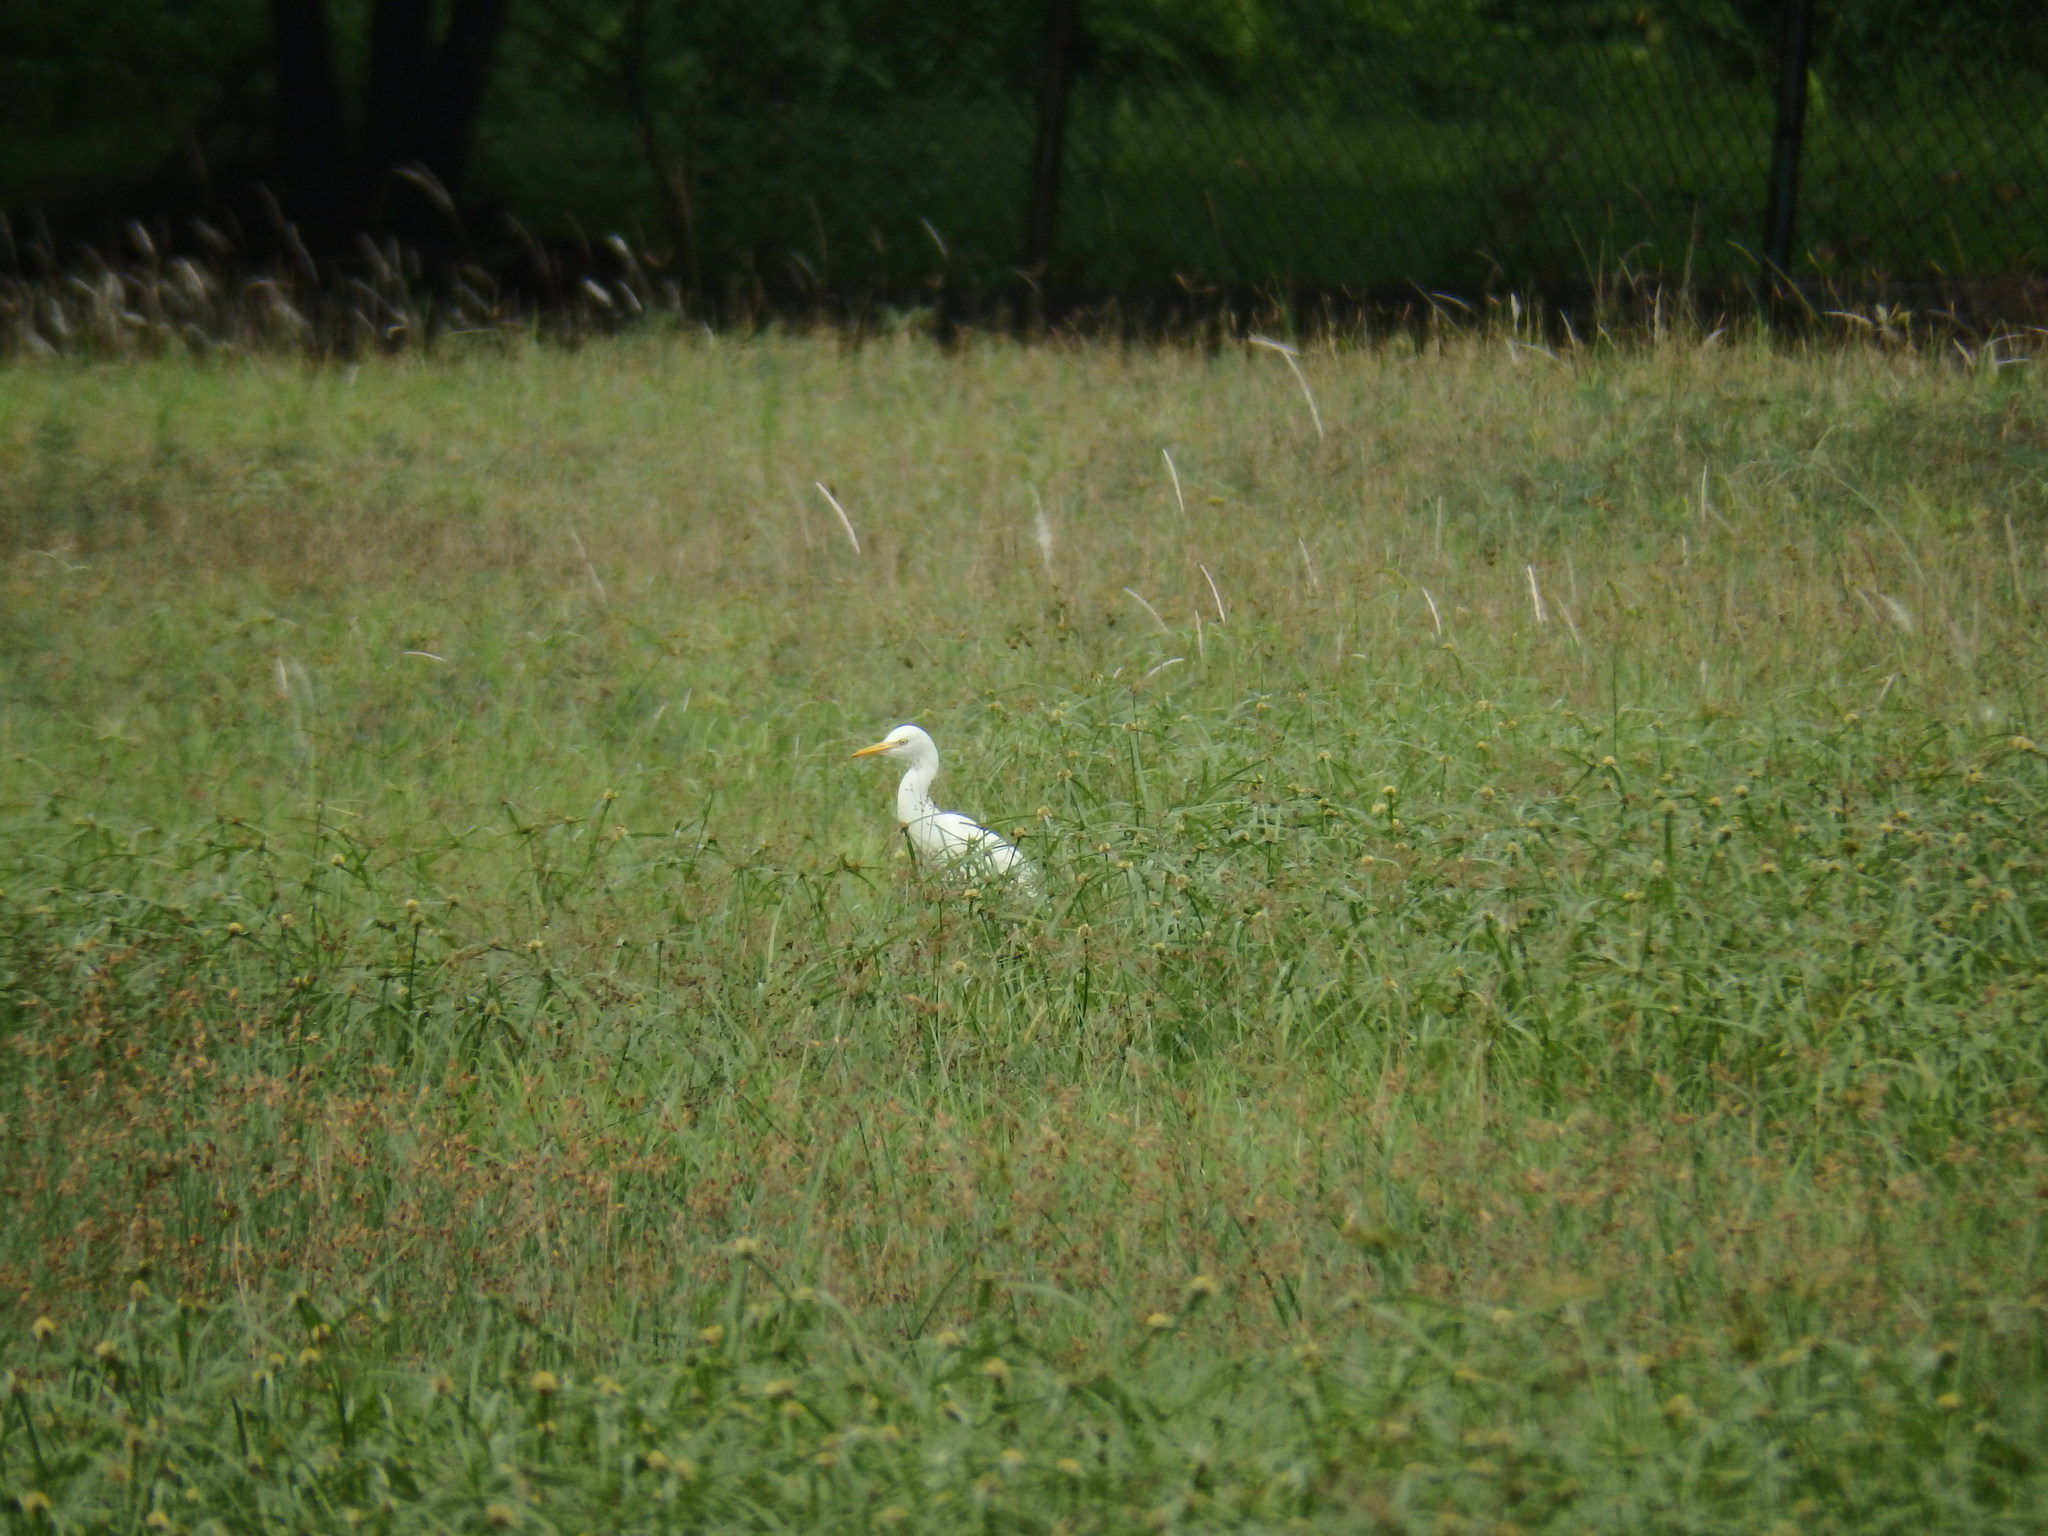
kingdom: Animalia
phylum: Chordata
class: Aves
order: Pelecaniformes
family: Ardeidae
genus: Bubulcus
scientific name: Bubulcus coromandus
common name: Eastern cattle egret
